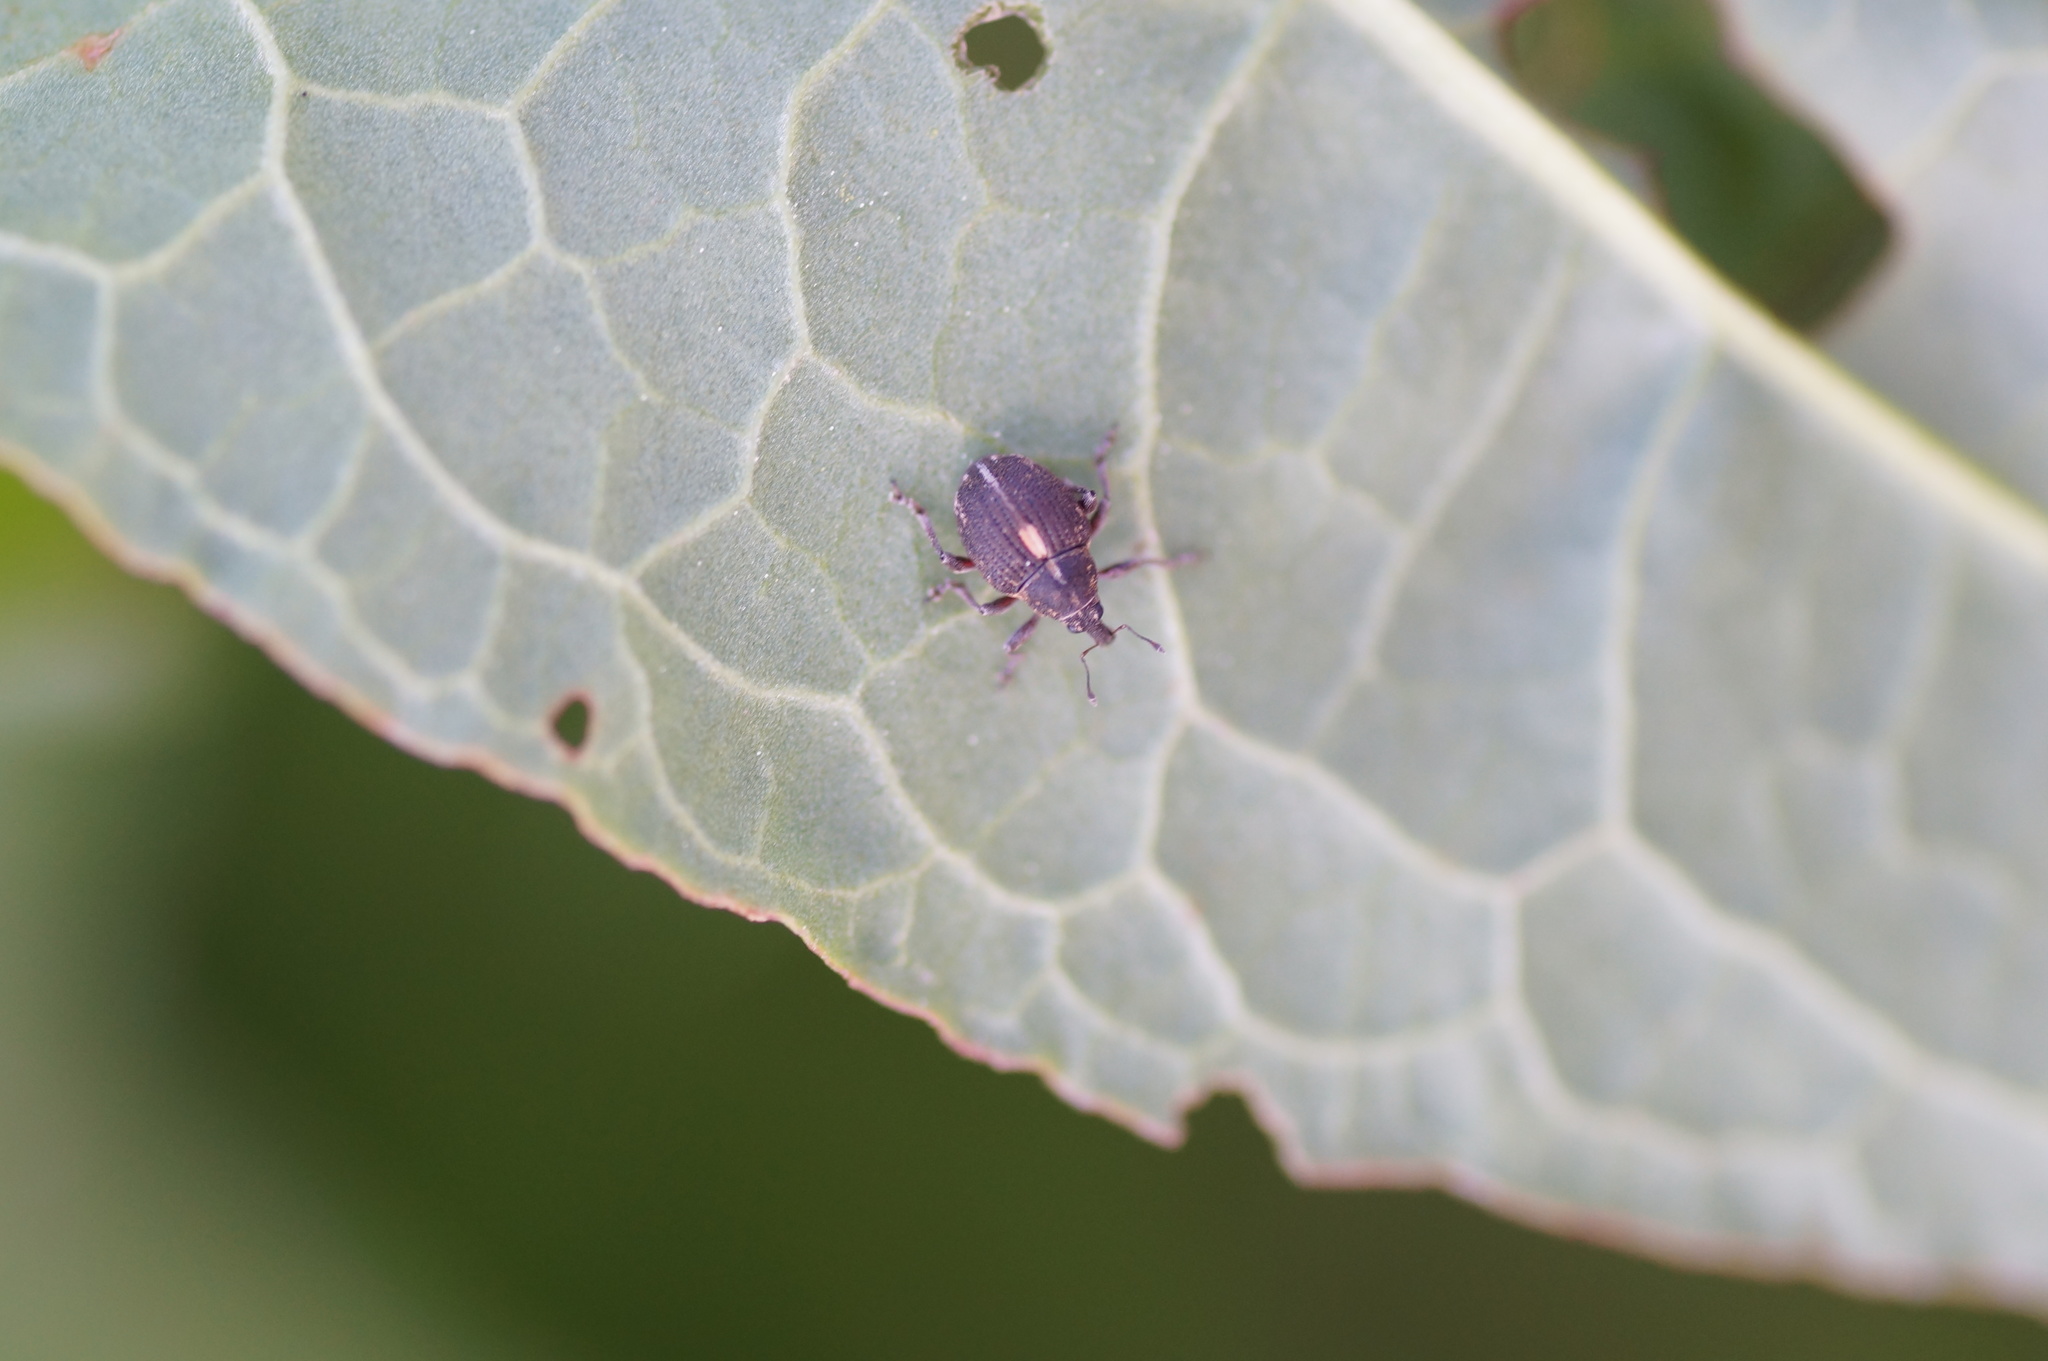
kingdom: Animalia
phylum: Arthropoda
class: Insecta
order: Coleoptera
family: Curculionidae
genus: Rhinoncus
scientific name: Rhinoncus leucostigma
